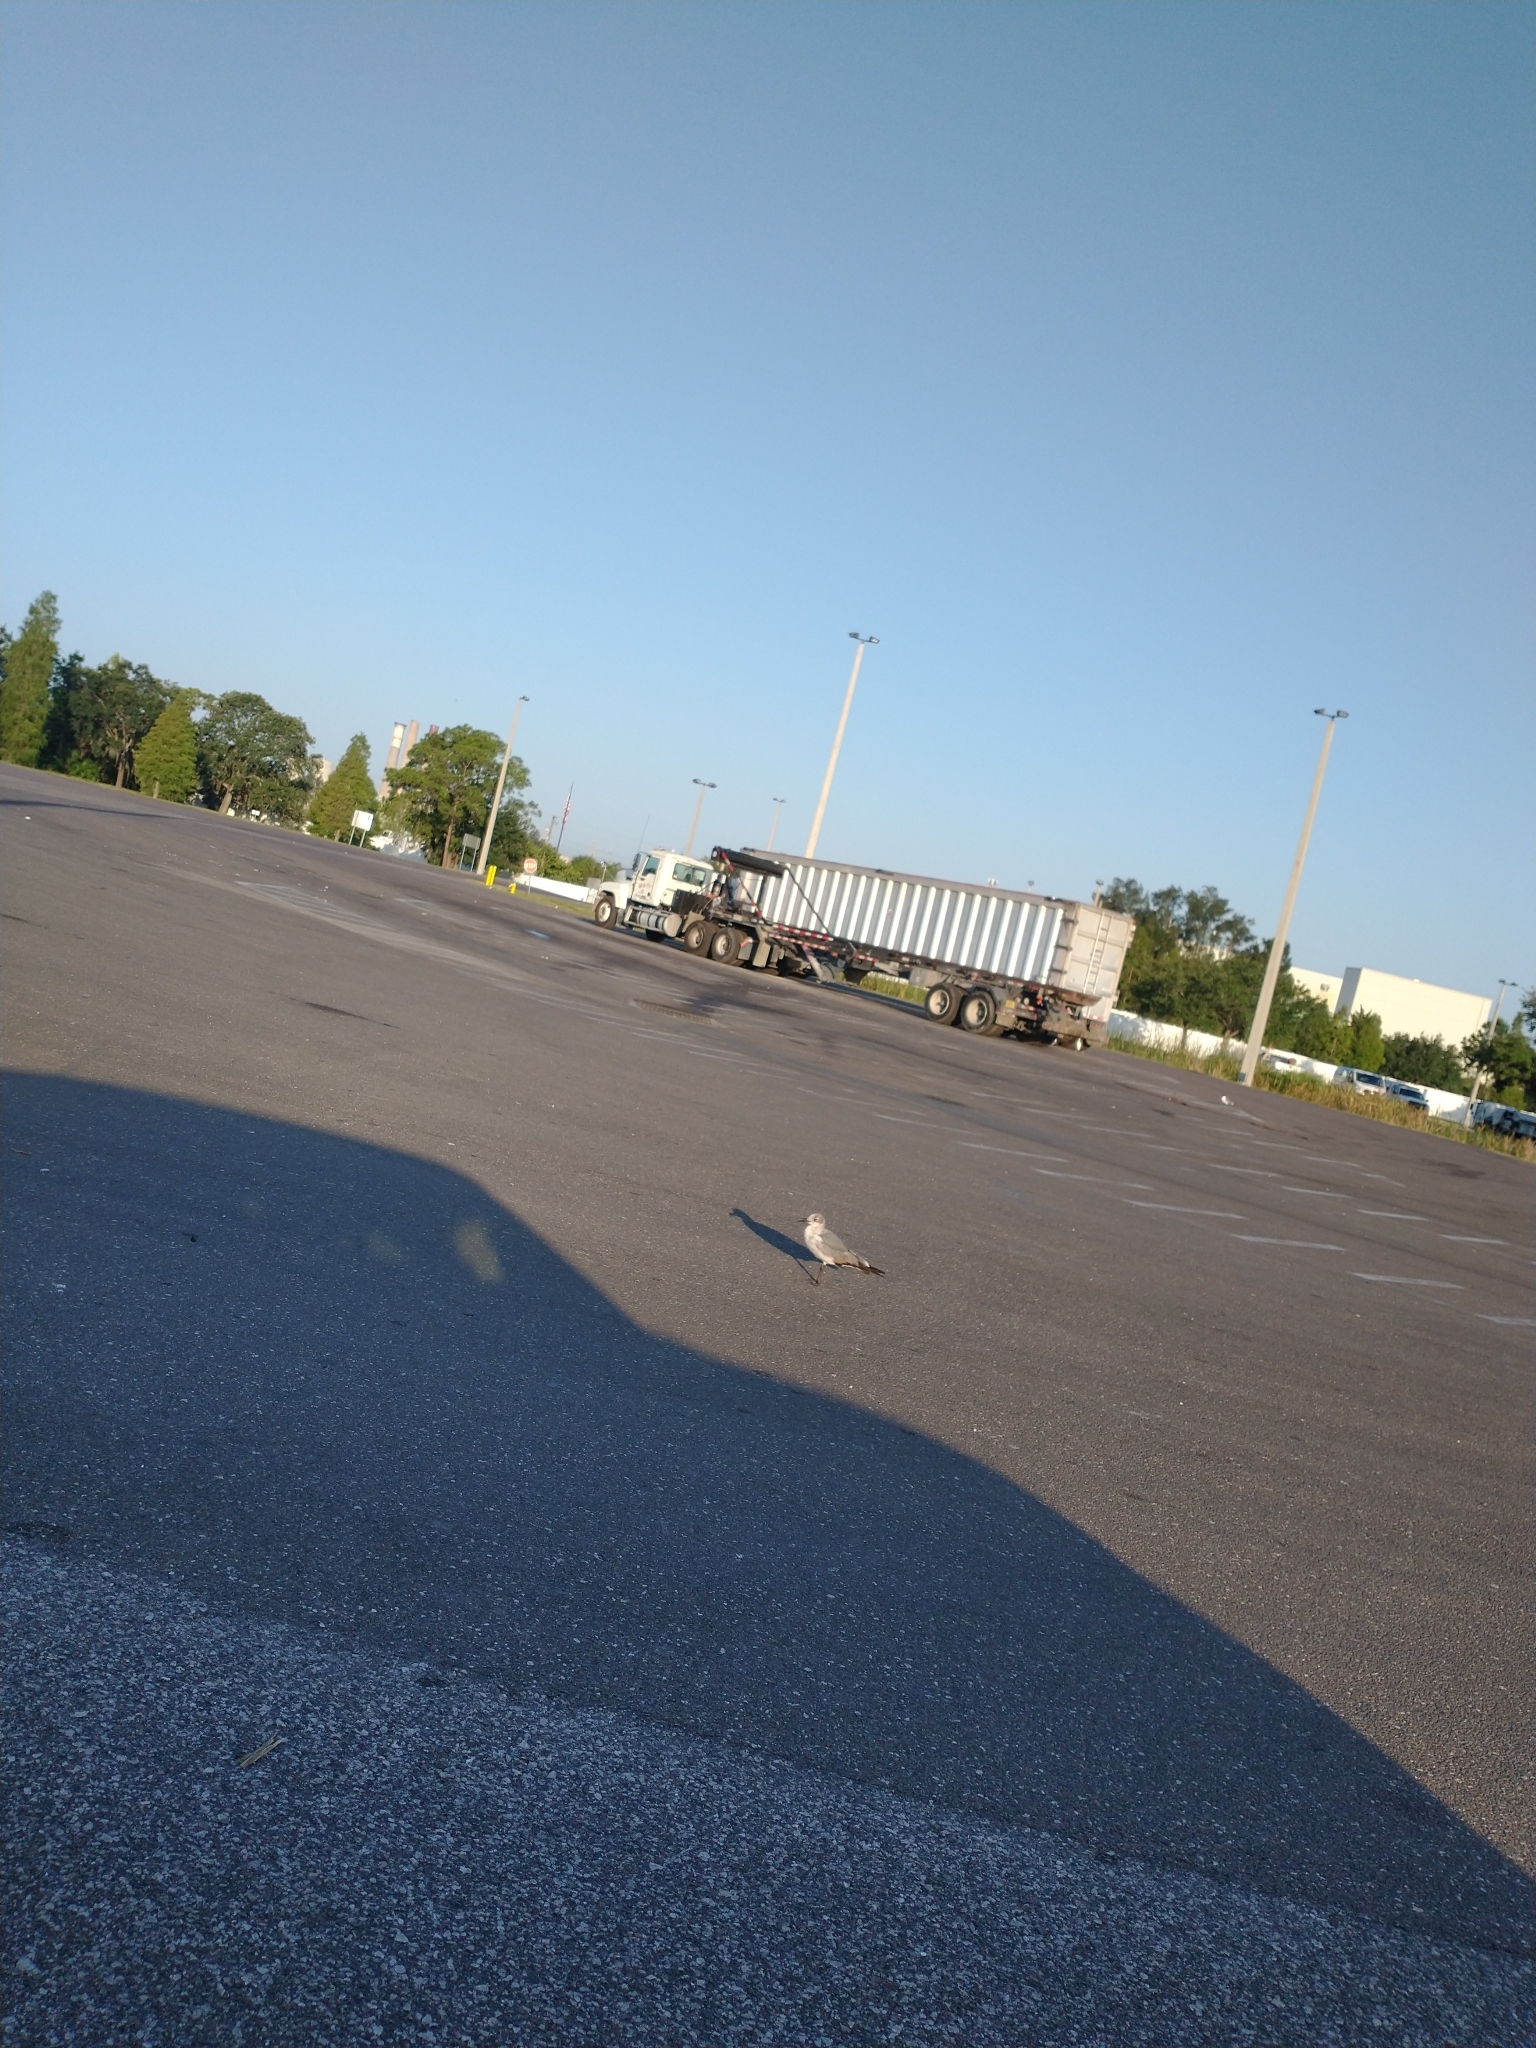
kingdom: Animalia
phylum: Chordata
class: Aves
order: Charadriiformes
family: Laridae
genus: Leucophaeus
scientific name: Leucophaeus atricilla
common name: Laughing gull
